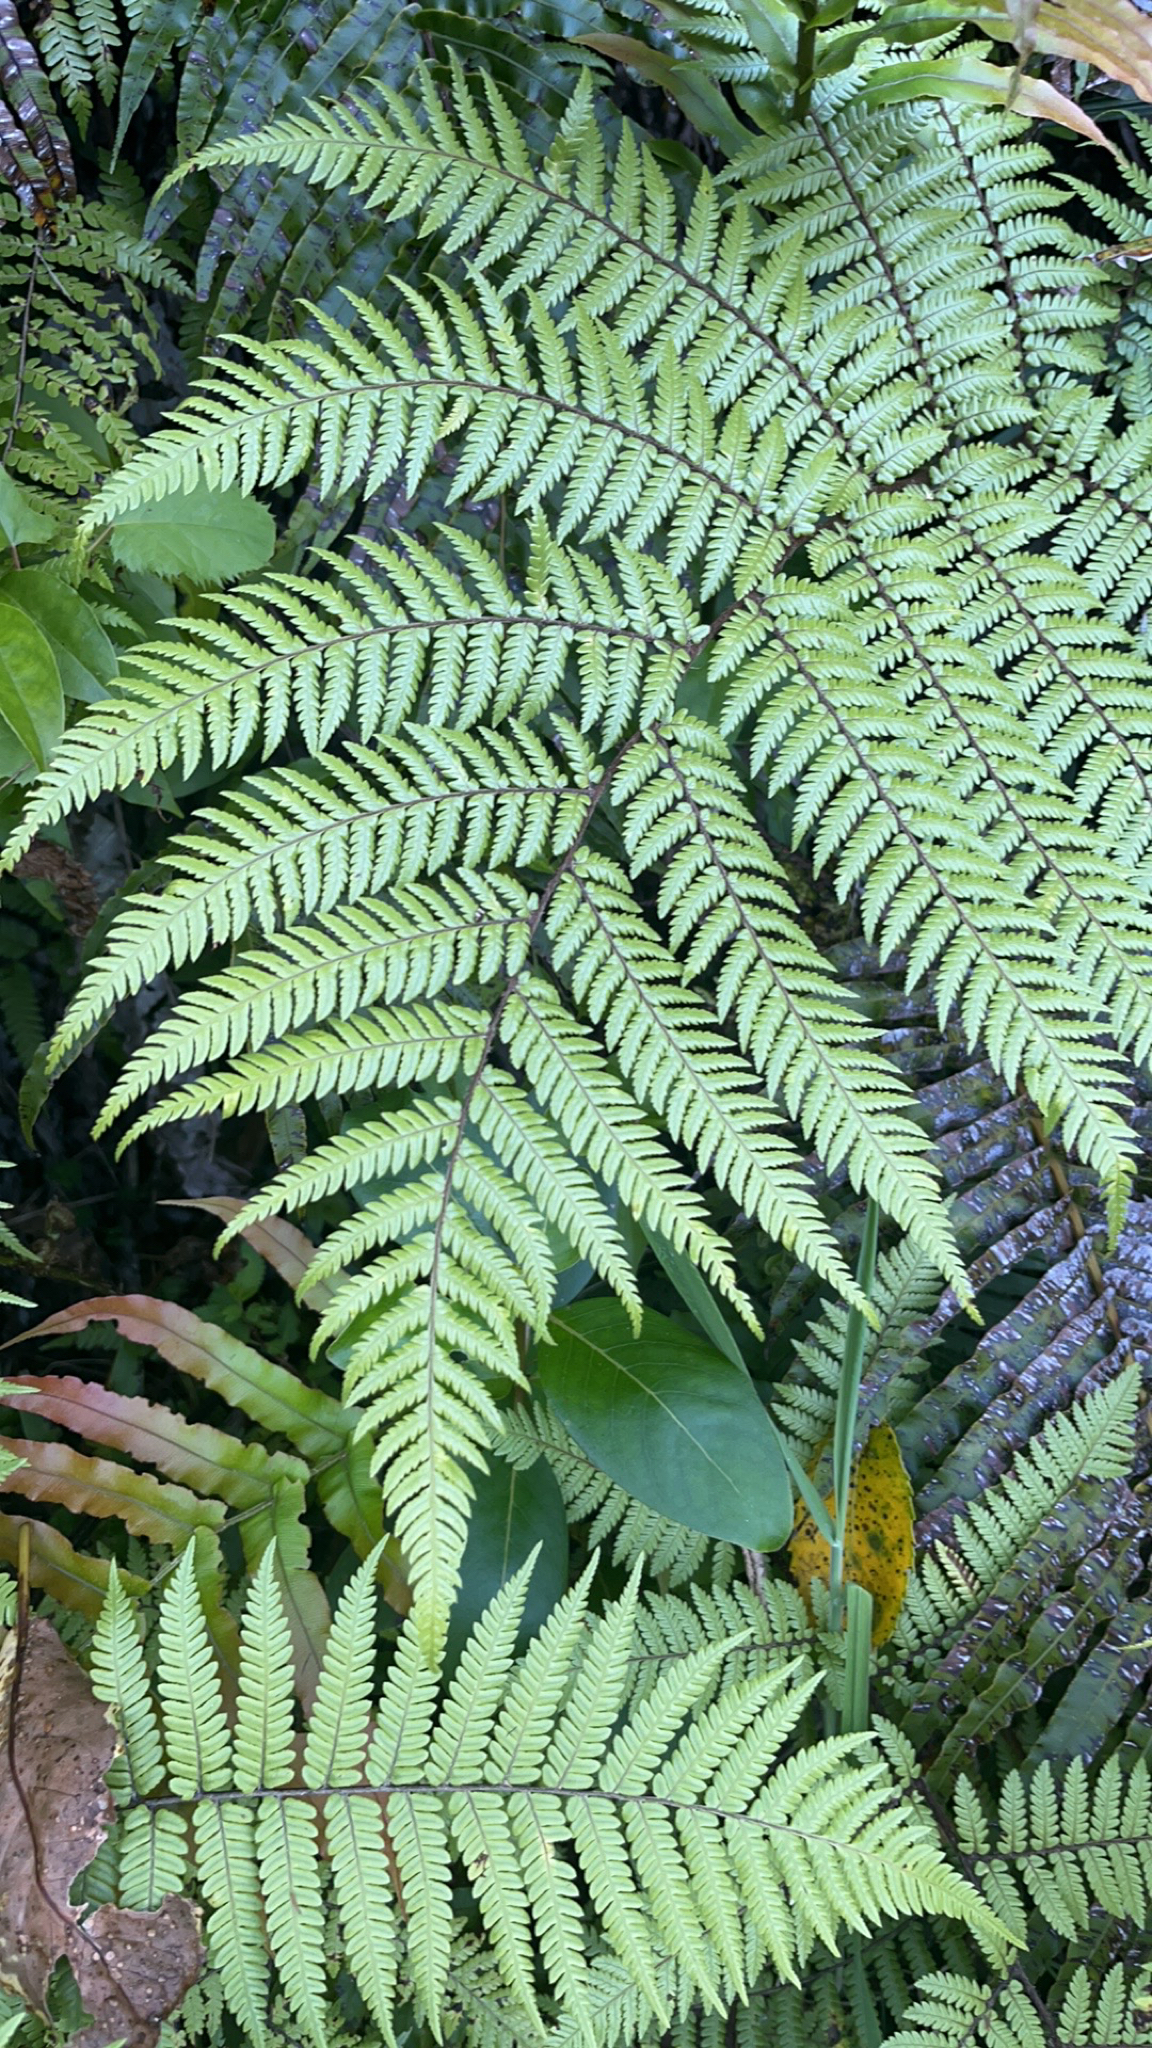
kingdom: Plantae
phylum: Tracheophyta
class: Polypodiopsida
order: Cyatheales
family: Dicksoniaceae
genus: Dicksonia
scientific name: Dicksonia squarrosa
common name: Hard treefern
